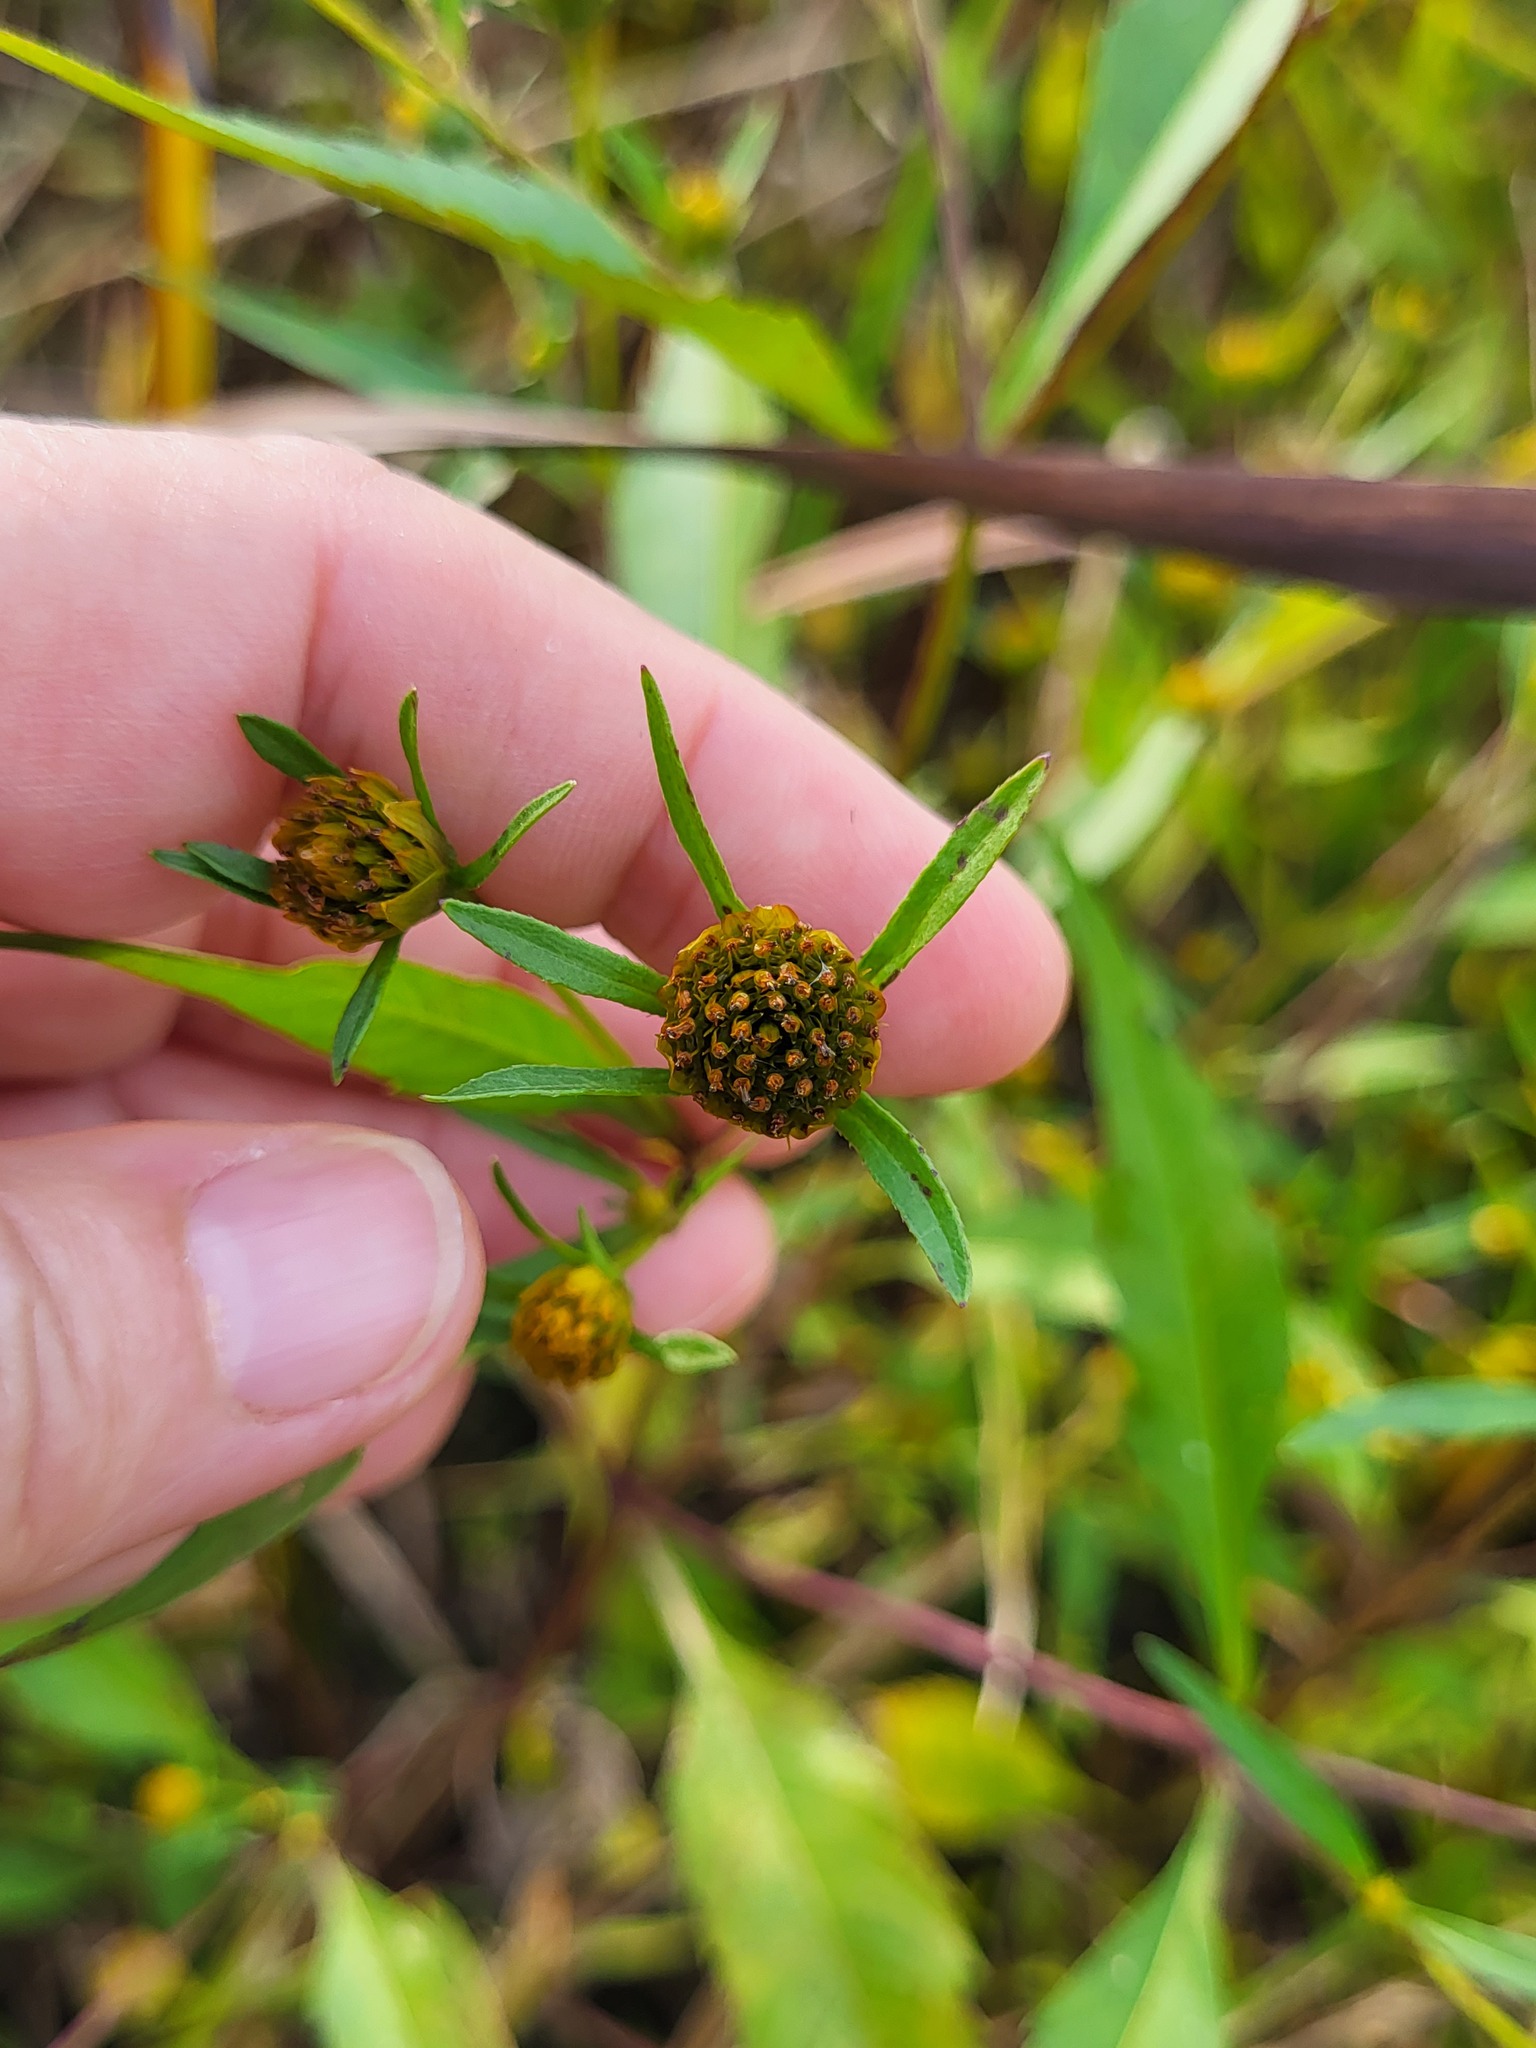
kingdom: Plantae
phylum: Tracheophyta
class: Magnoliopsida
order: Asterales
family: Asteraceae
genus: Bidens
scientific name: Bidens connata
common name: London bur-marigold
